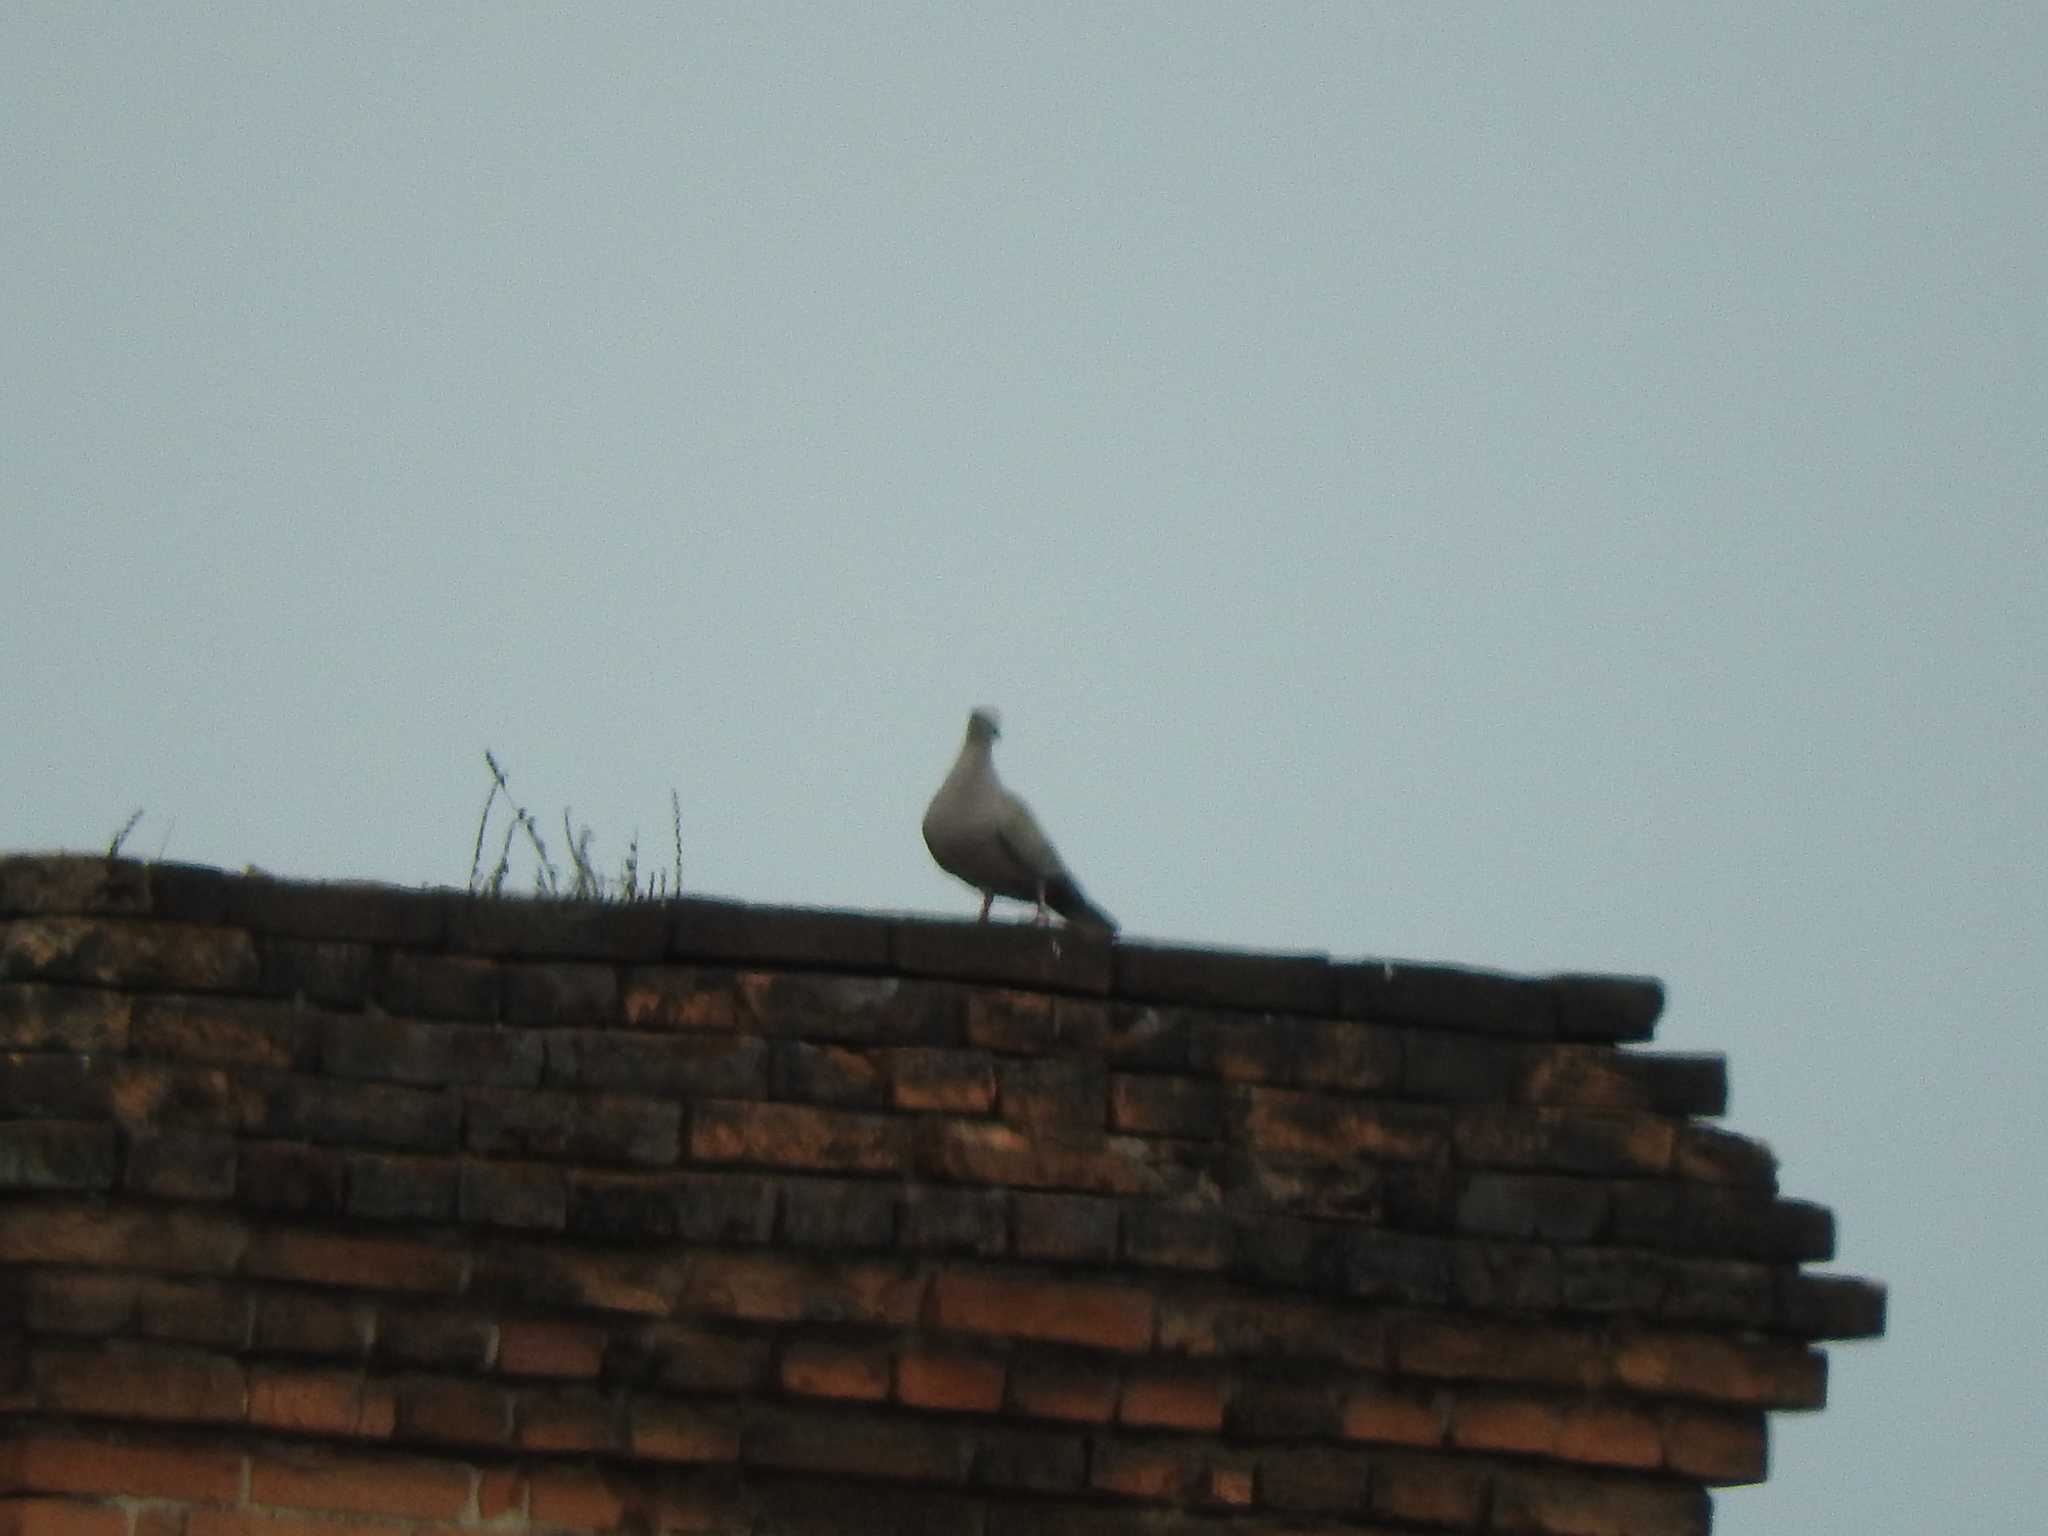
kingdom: Animalia
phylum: Chordata
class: Aves
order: Columbiformes
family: Columbidae
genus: Streptopelia
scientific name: Streptopelia decaocto
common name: Eurasian collared dove
